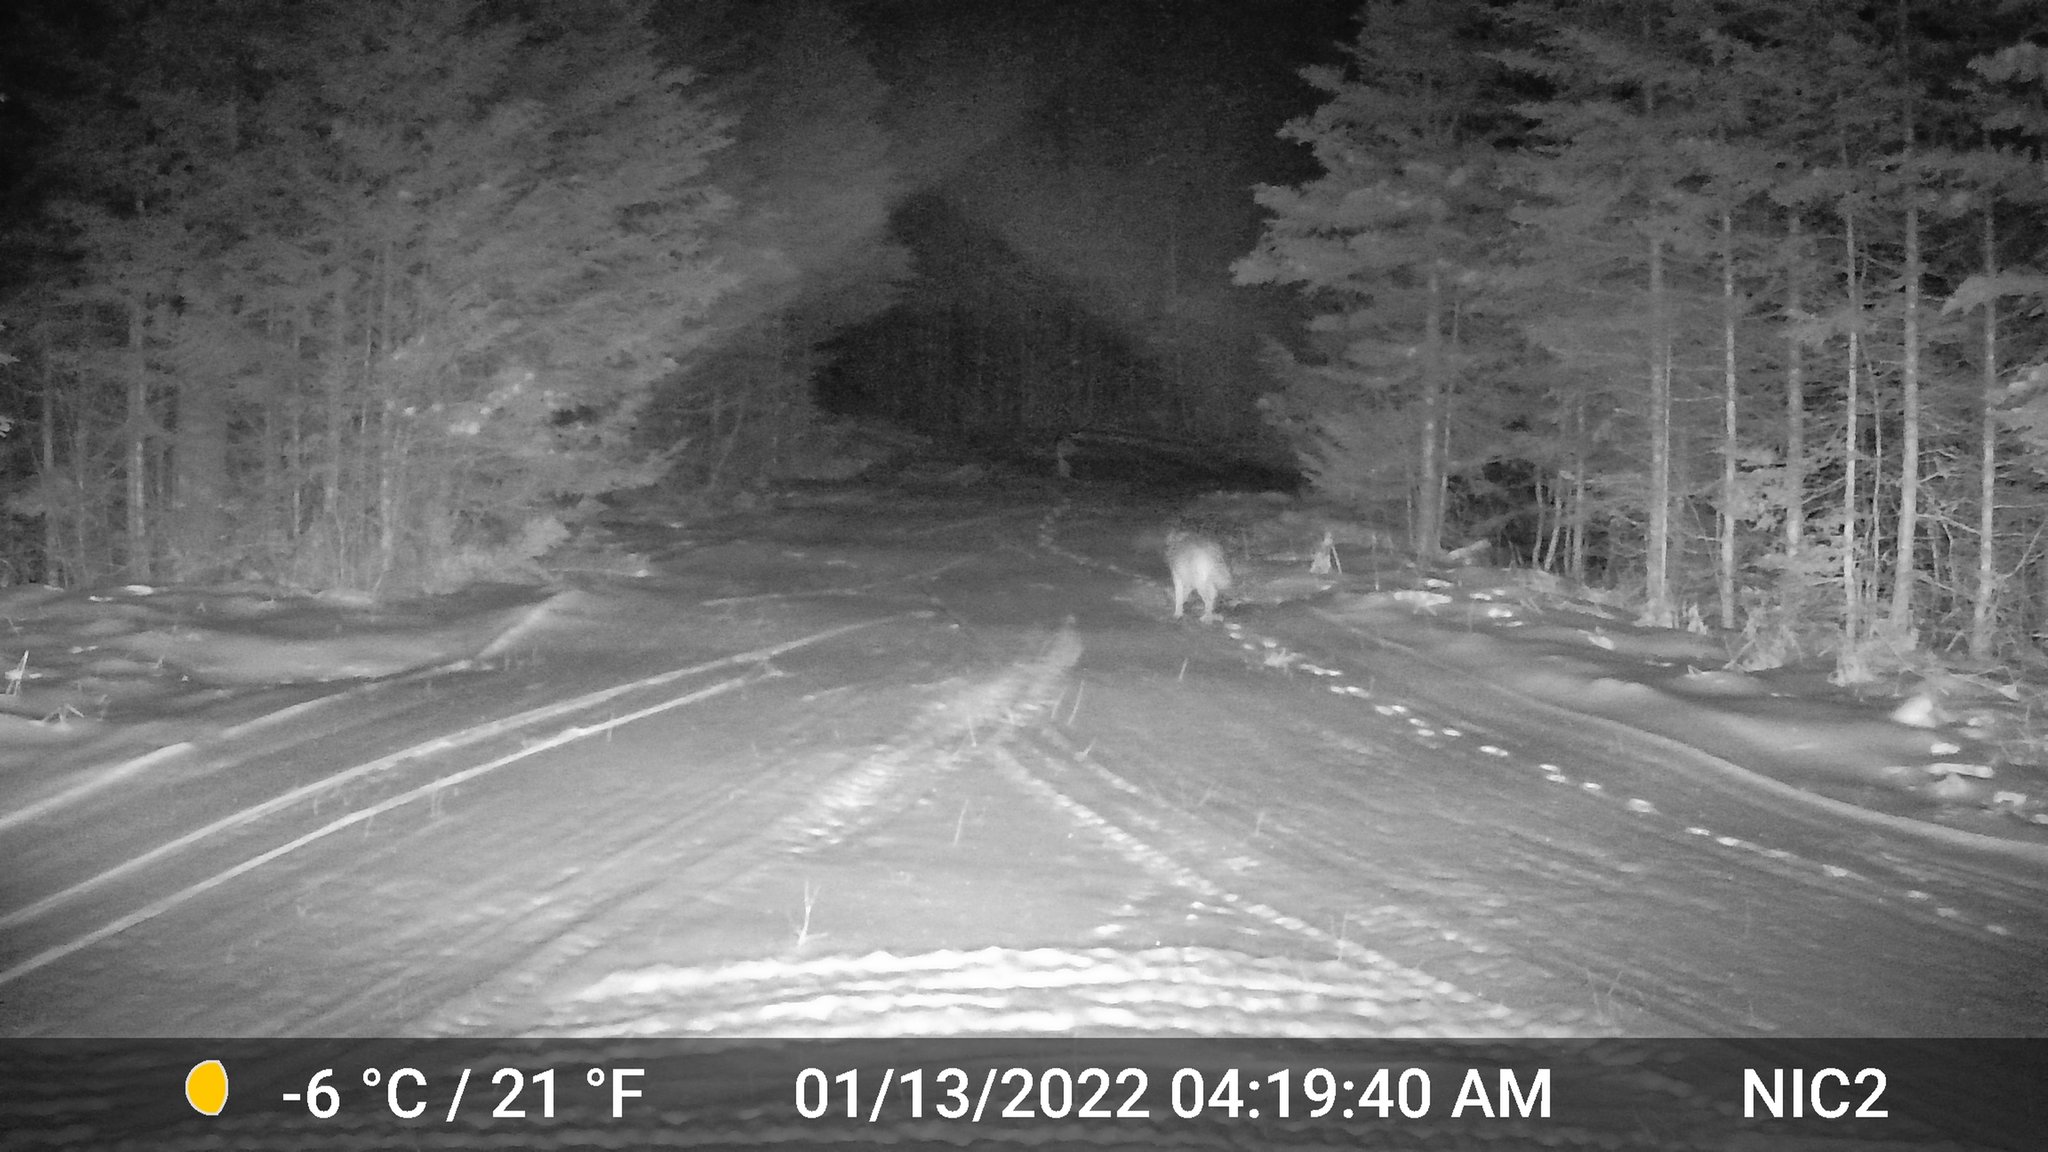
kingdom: Animalia
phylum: Chordata
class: Mammalia
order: Carnivora
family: Canidae
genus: Canis
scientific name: Canis latrans
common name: Coyote
